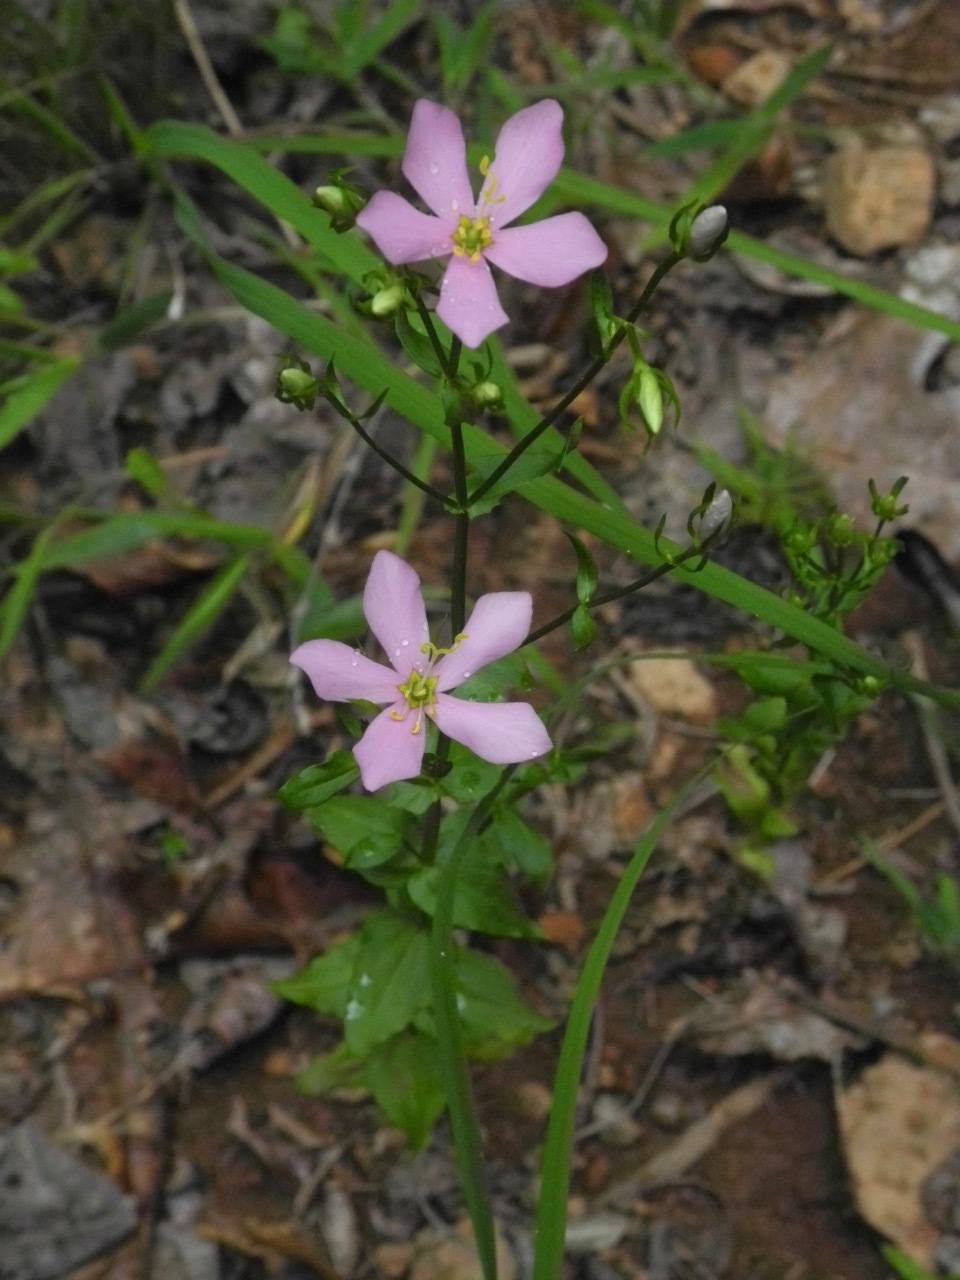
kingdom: Plantae
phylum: Tracheophyta
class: Magnoliopsida
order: Gentianales
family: Gentianaceae
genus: Sabatia
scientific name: Sabatia angularis
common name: Rose-pink
